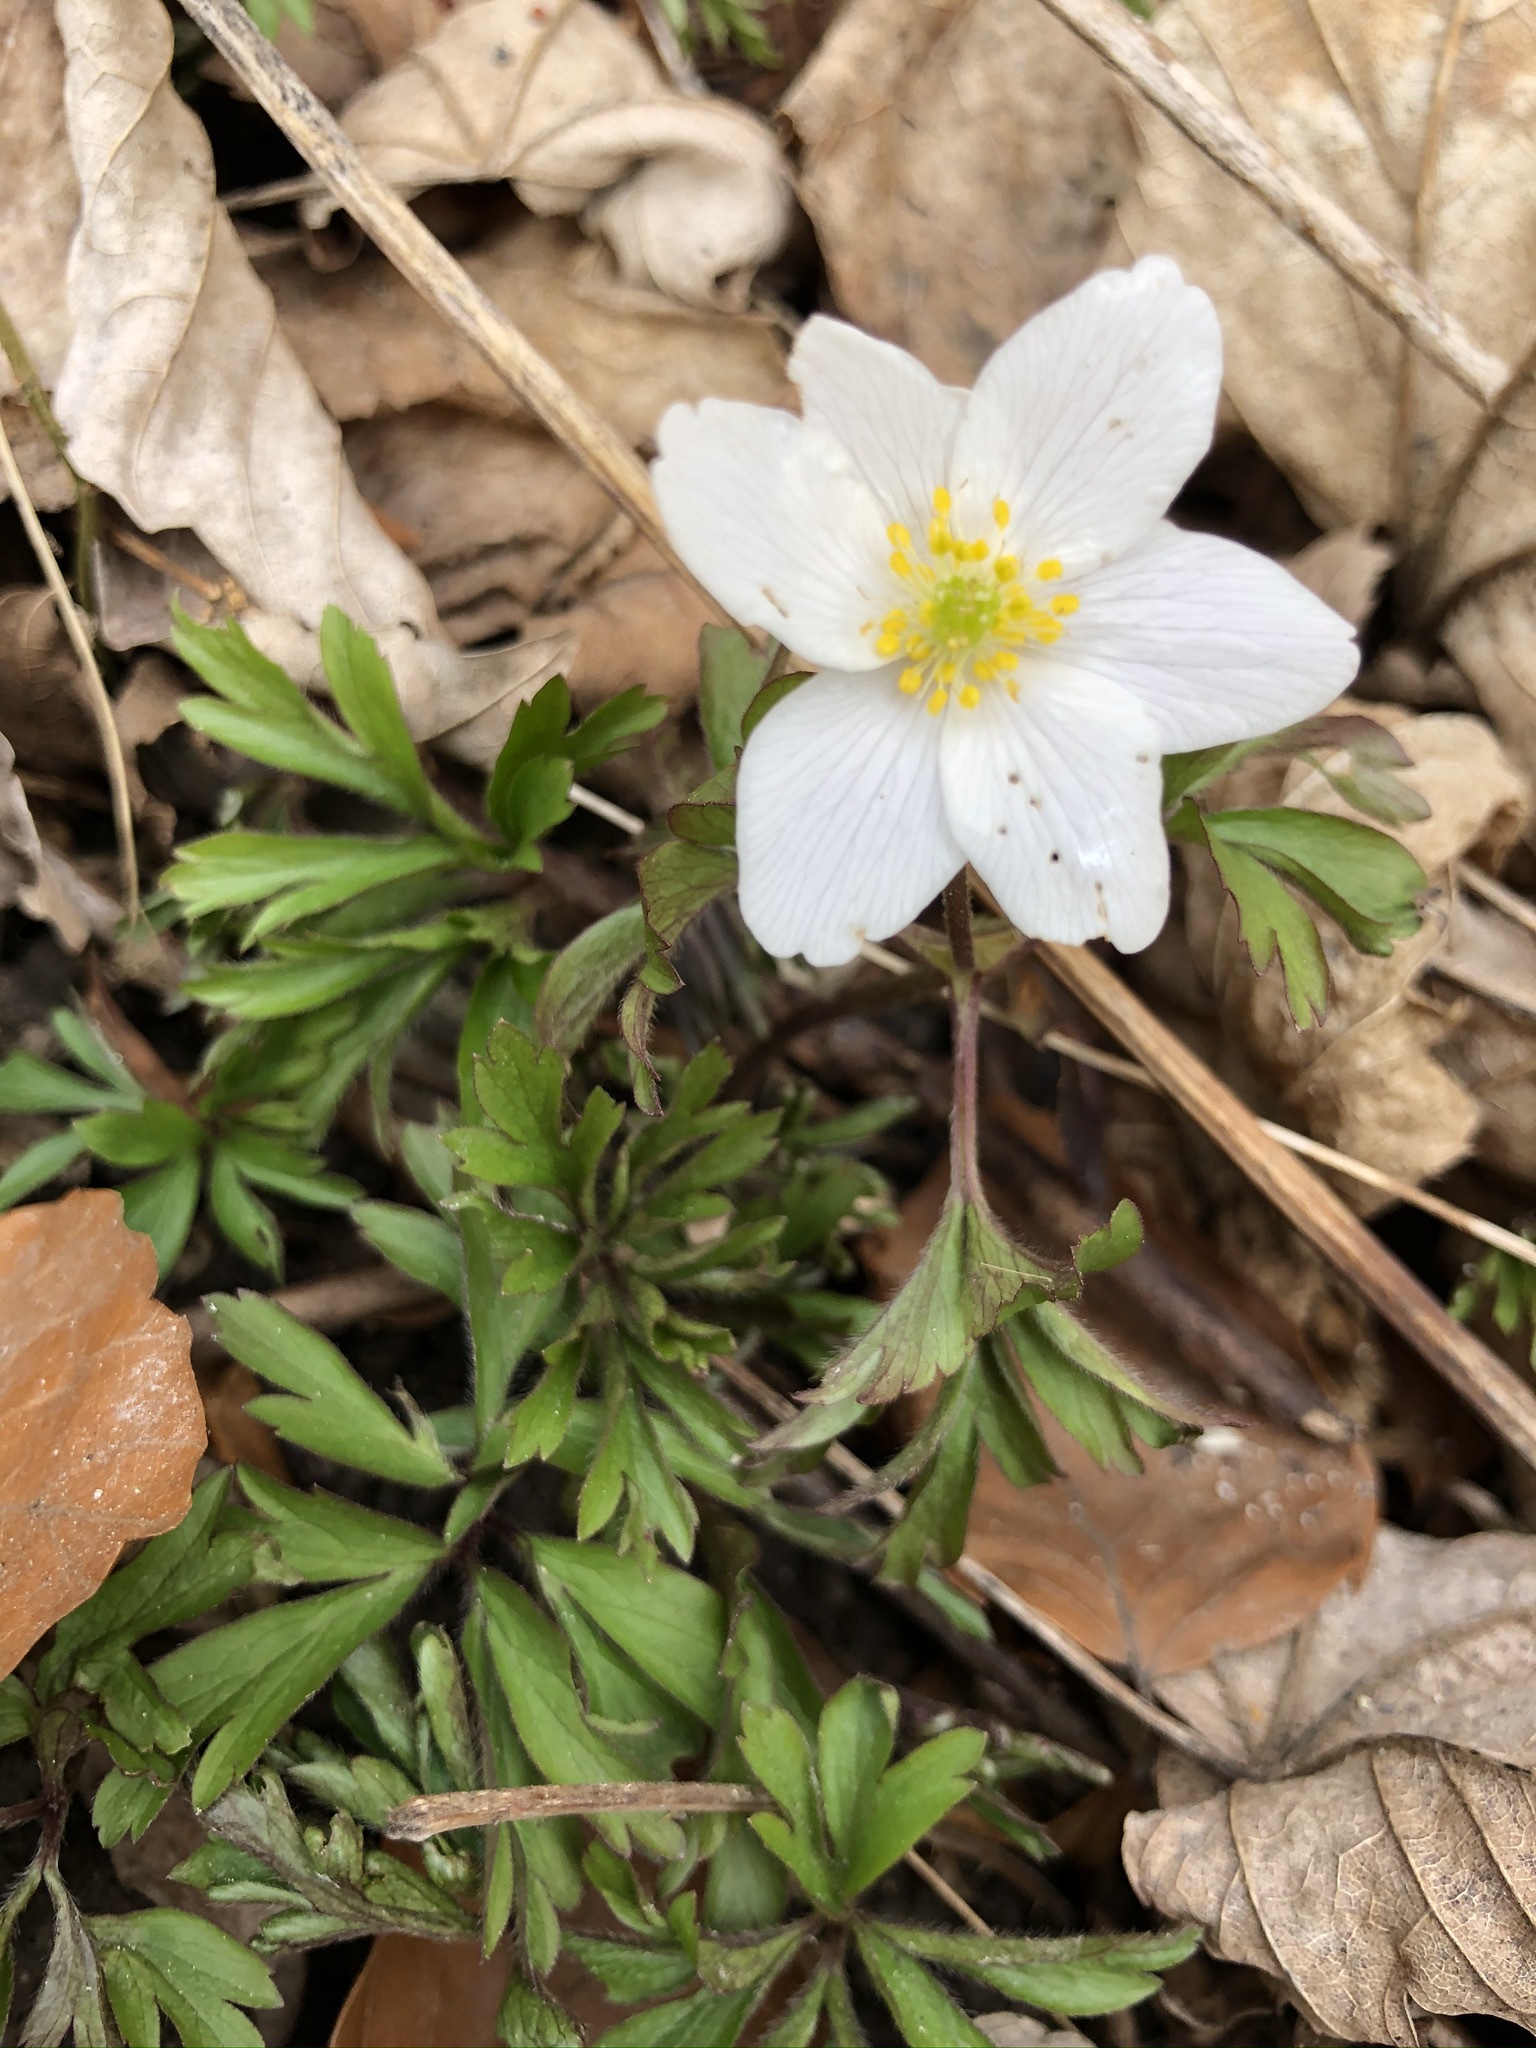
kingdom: Plantae
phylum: Tracheophyta
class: Magnoliopsida
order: Ranunculales
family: Ranunculaceae
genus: Anemone
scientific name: Anemone nemorosa
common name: Wood anemone
